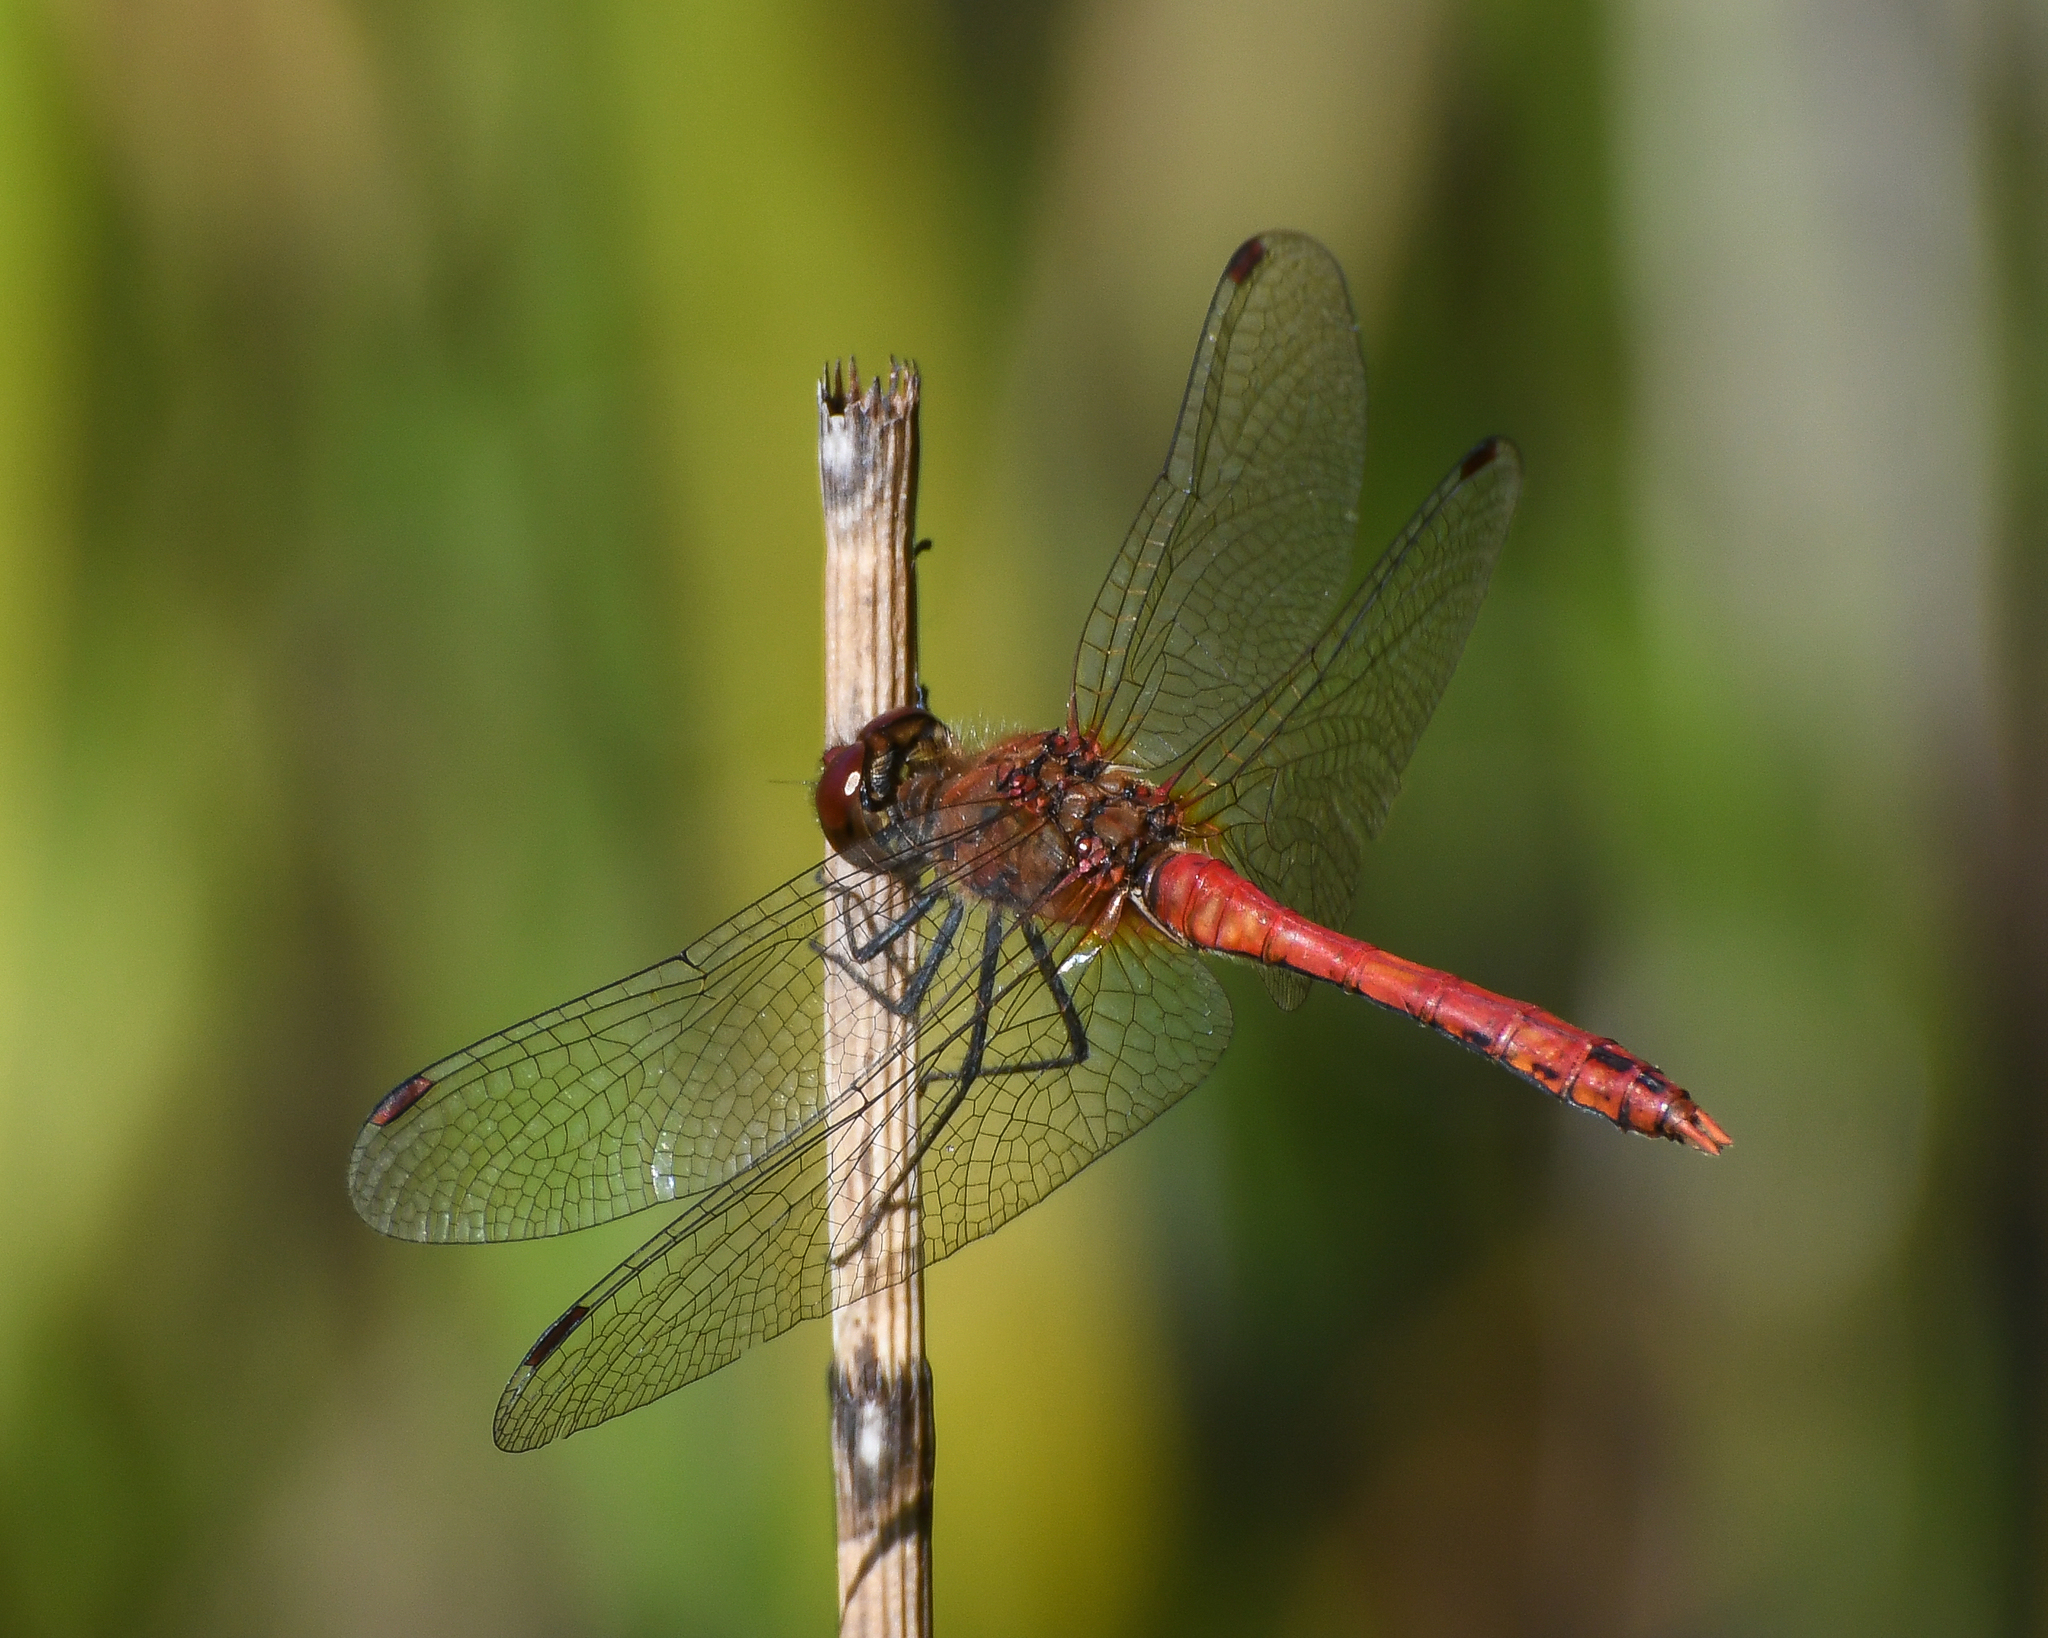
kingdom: Animalia
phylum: Arthropoda
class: Insecta
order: Odonata
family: Libellulidae
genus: Sympetrum
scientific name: Sympetrum sanguineum
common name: Ruddy darter
